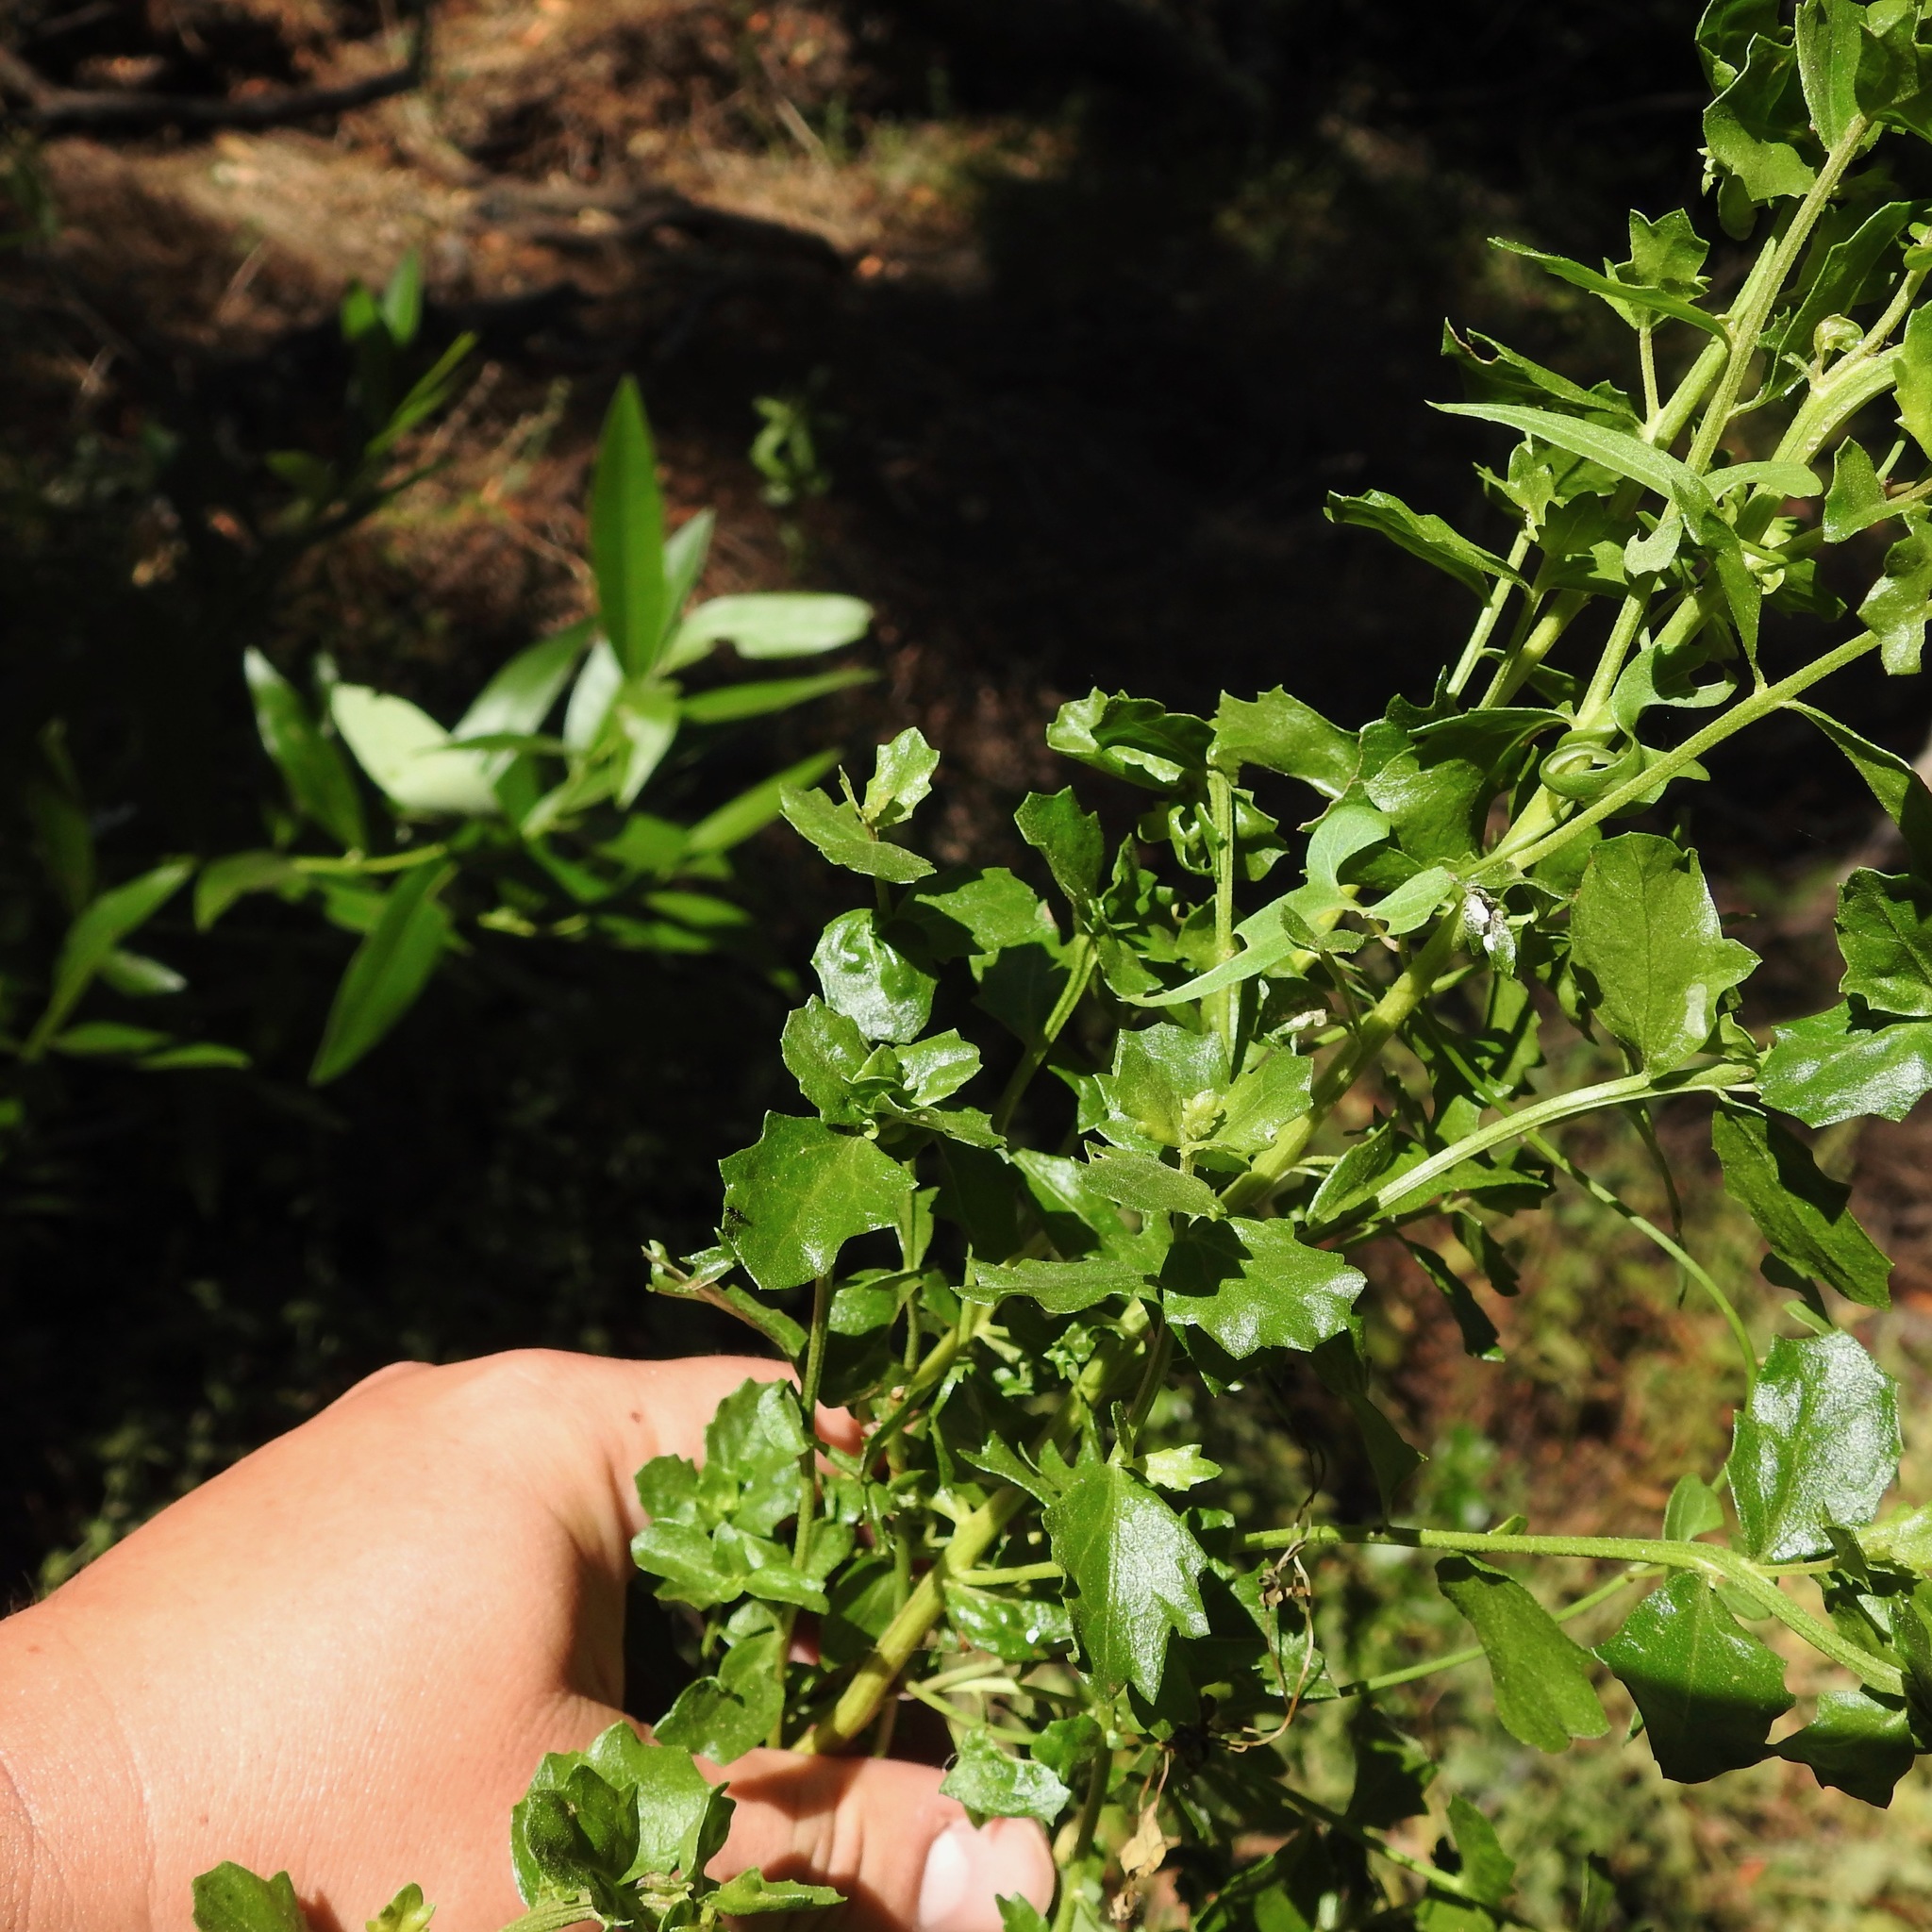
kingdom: Plantae
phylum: Tracheophyta
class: Magnoliopsida
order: Asterales
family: Asteraceae
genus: Baccharis
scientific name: Baccharis pilularis
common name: Coyotebrush
